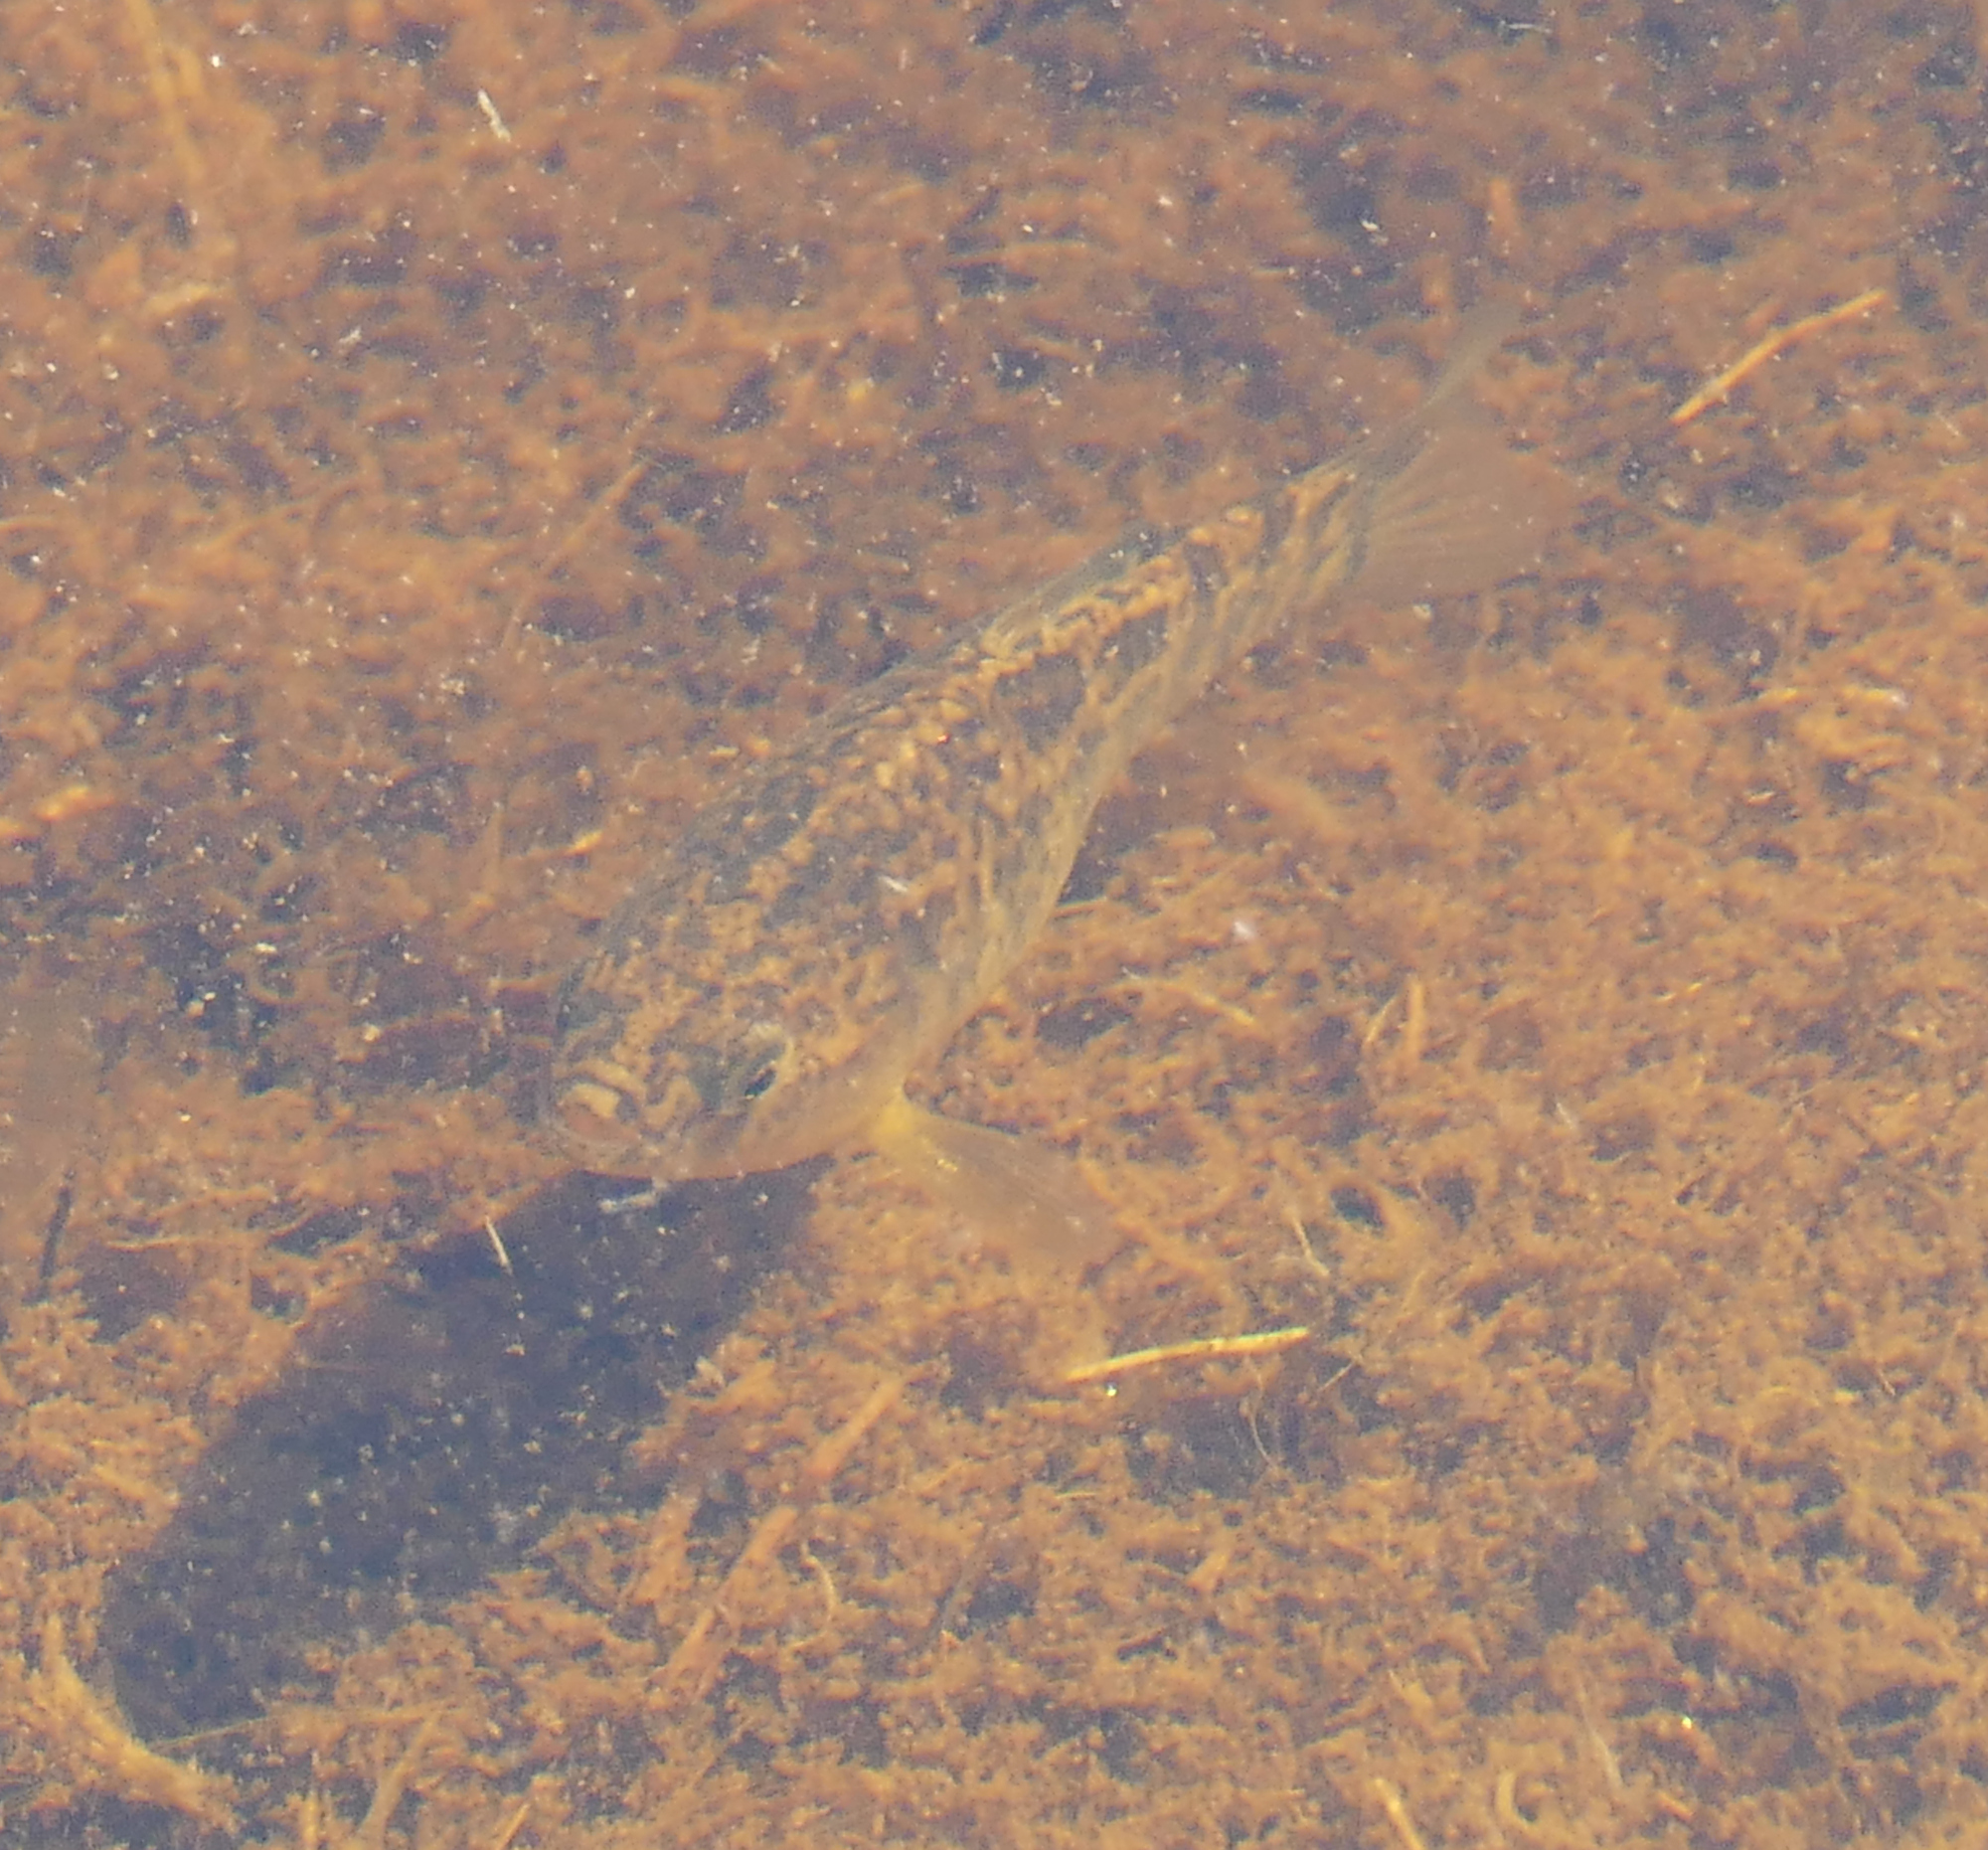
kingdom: Animalia
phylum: Chordata
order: Cyprinodontiformes
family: Cyprinodontidae
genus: Cyprinodon
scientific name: Cyprinodon variegatus
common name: Sheepshead minnow
